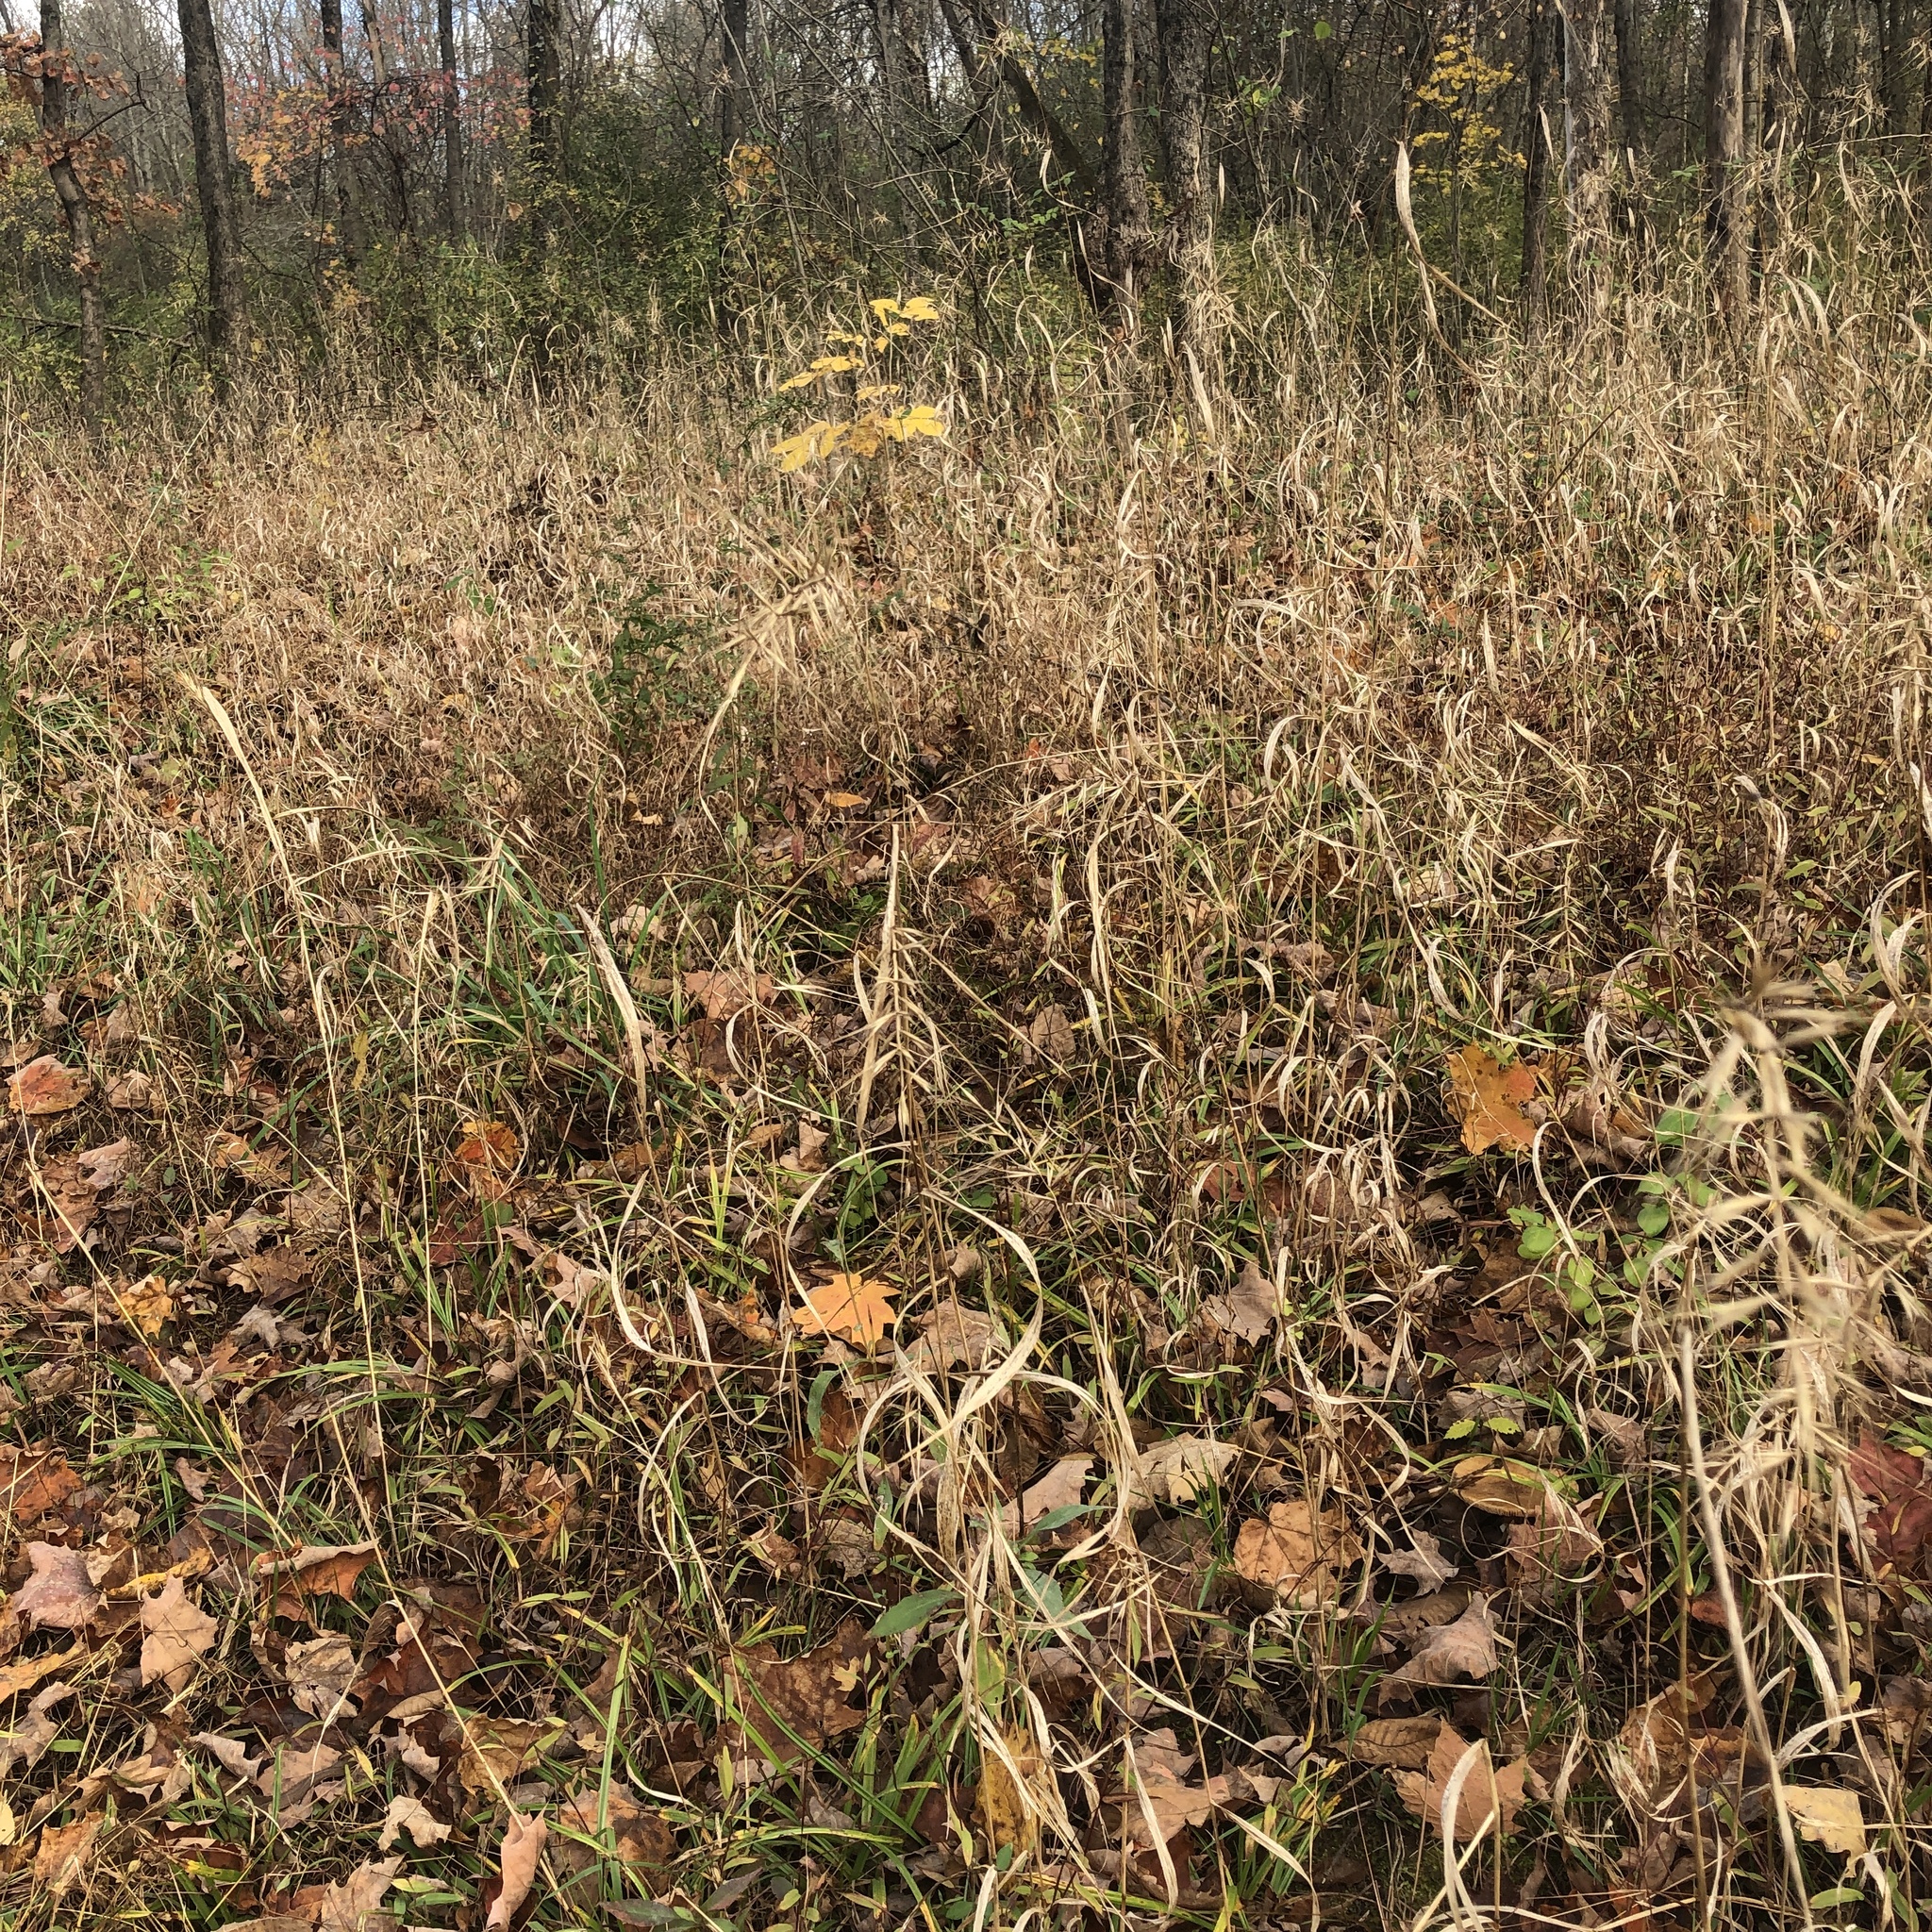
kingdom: Plantae
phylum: Tracheophyta
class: Liliopsida
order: Poales
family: Poaceae
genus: Elymus
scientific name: Elymus hystrix
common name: Bottlebrush grass
